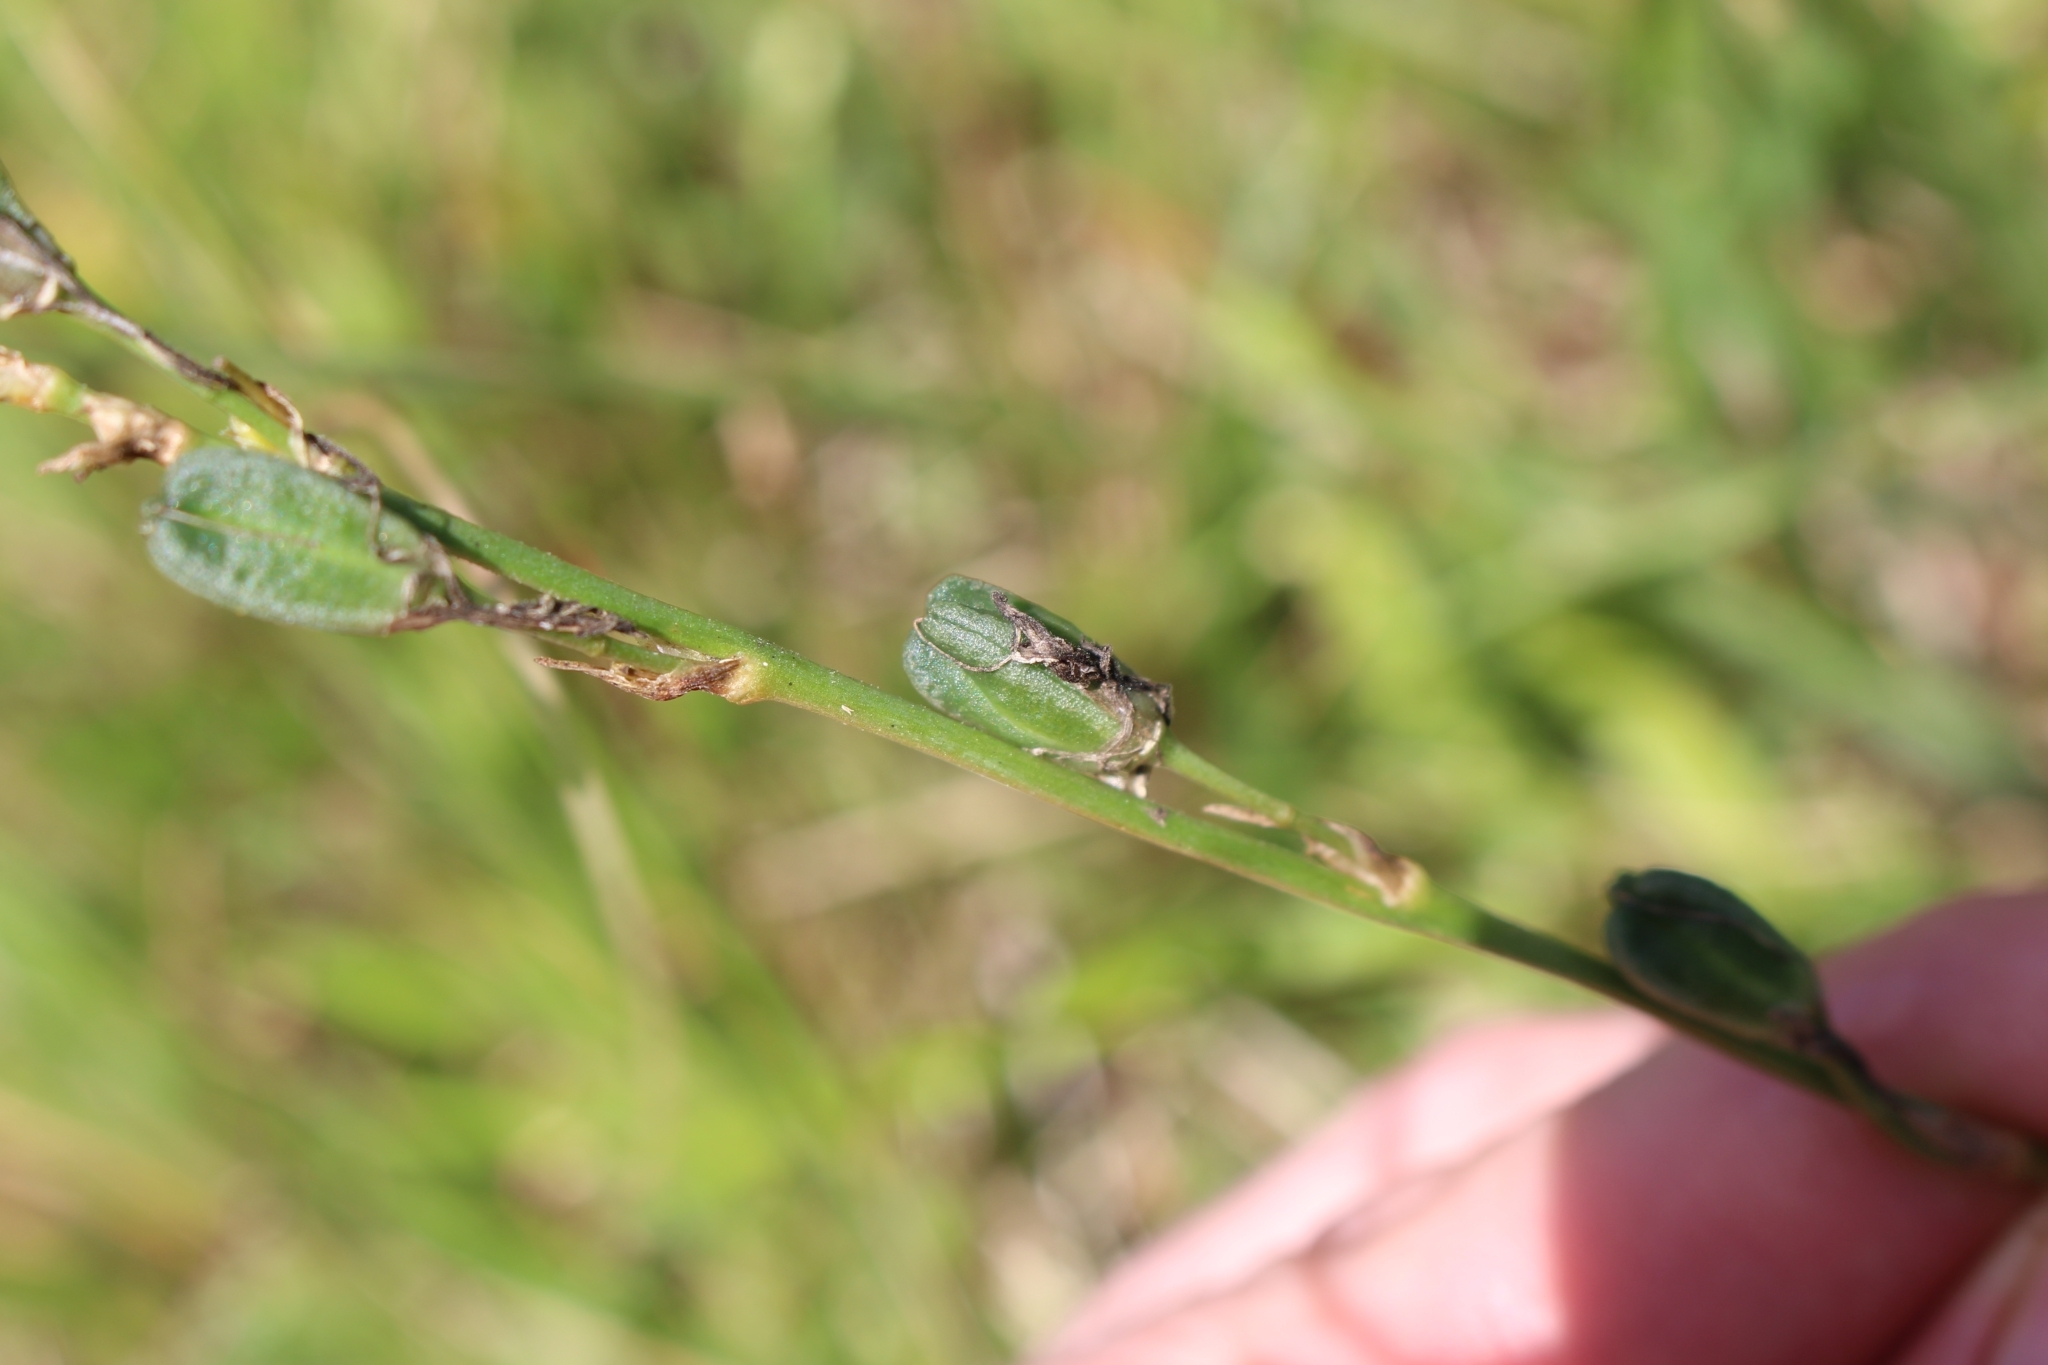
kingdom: Plantae
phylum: Tracheophyta
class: Liliopsida
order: Asparagales
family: Asparagaceae
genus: Echeandia
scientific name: Echeandia skinneri
